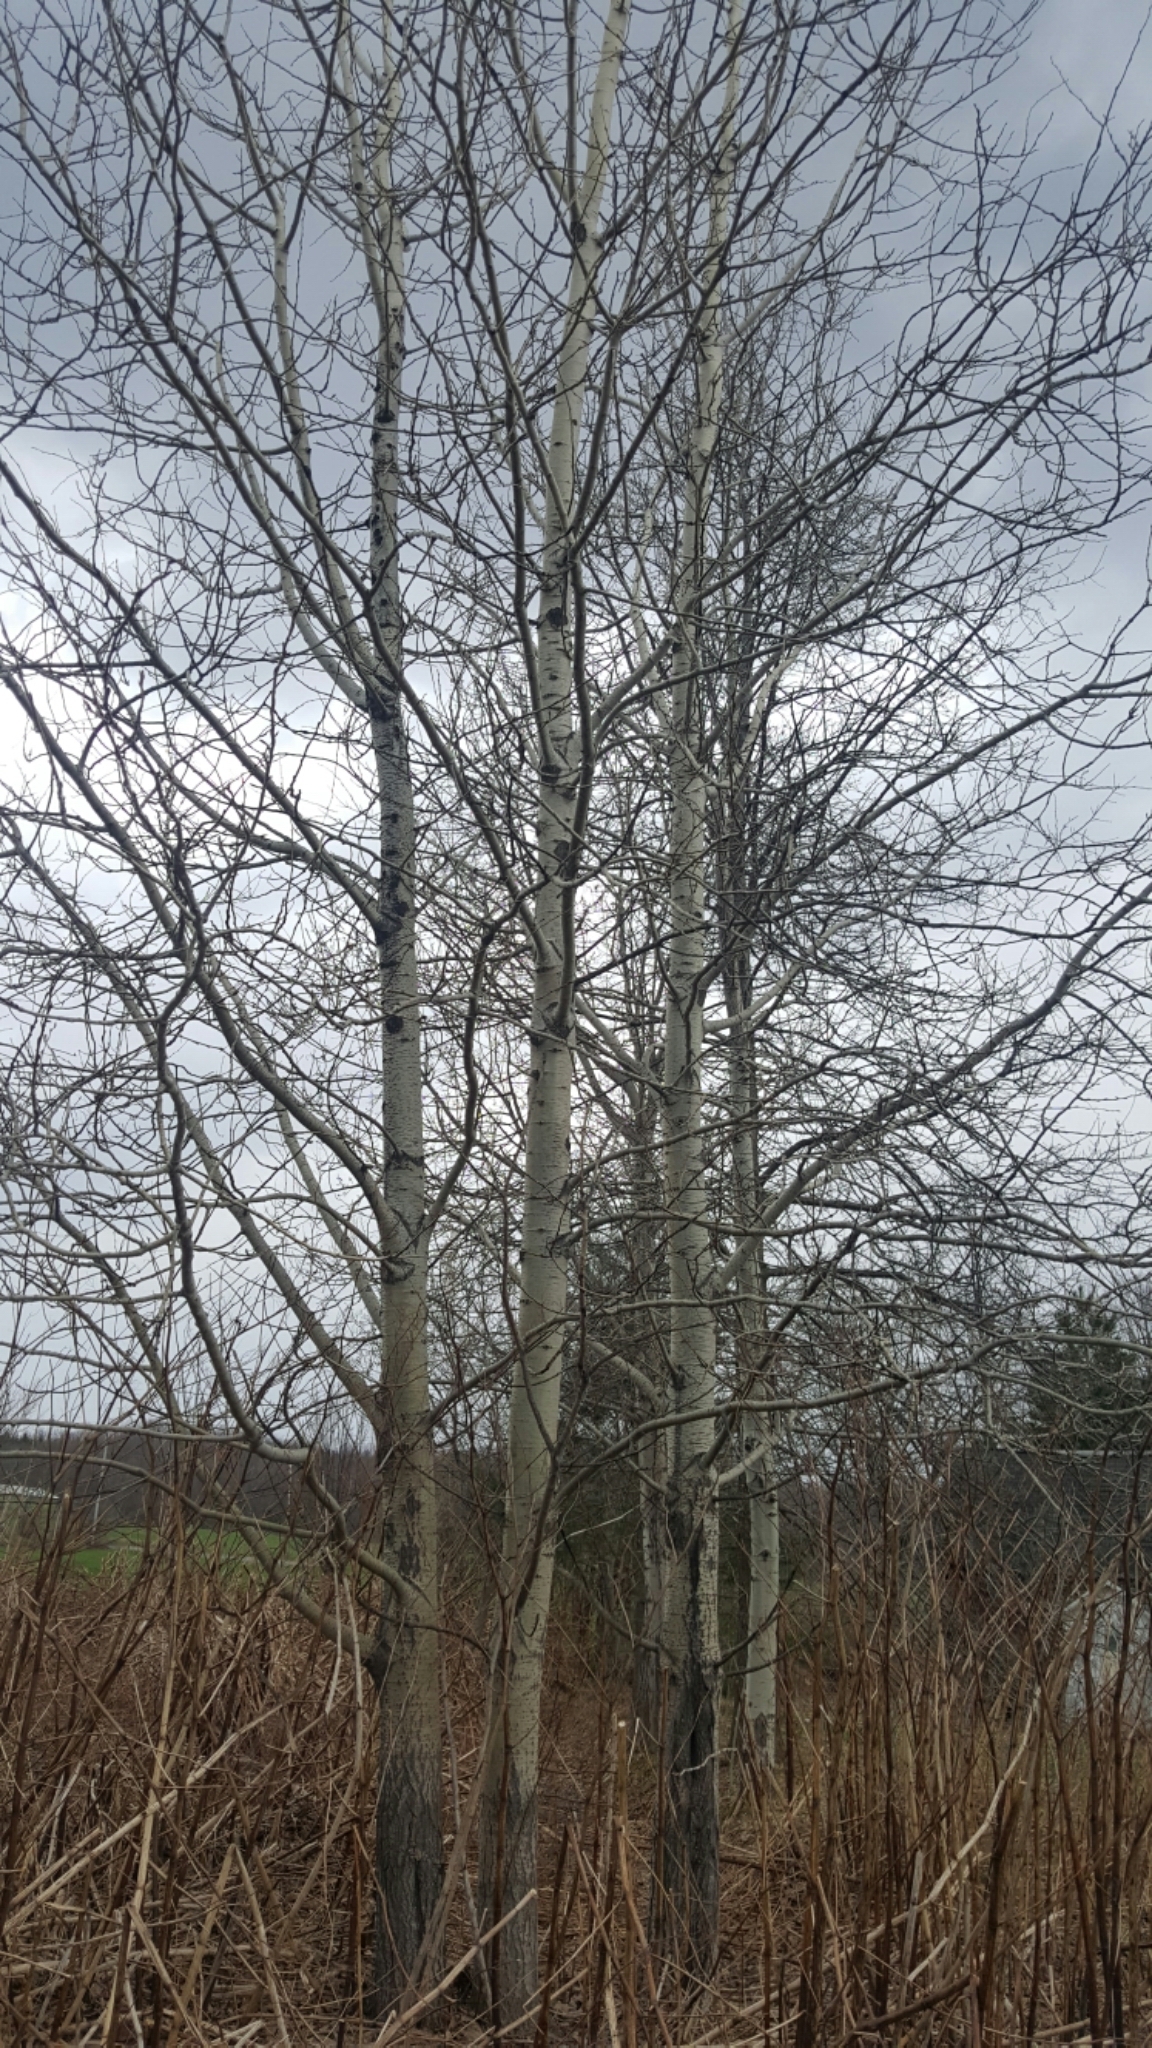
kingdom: Plantae
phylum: Tracheophyta
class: Magnoliopsida
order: Malpighiales
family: Salicaceae
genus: Populus
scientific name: Populus tremuloides
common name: Quaking aspen
